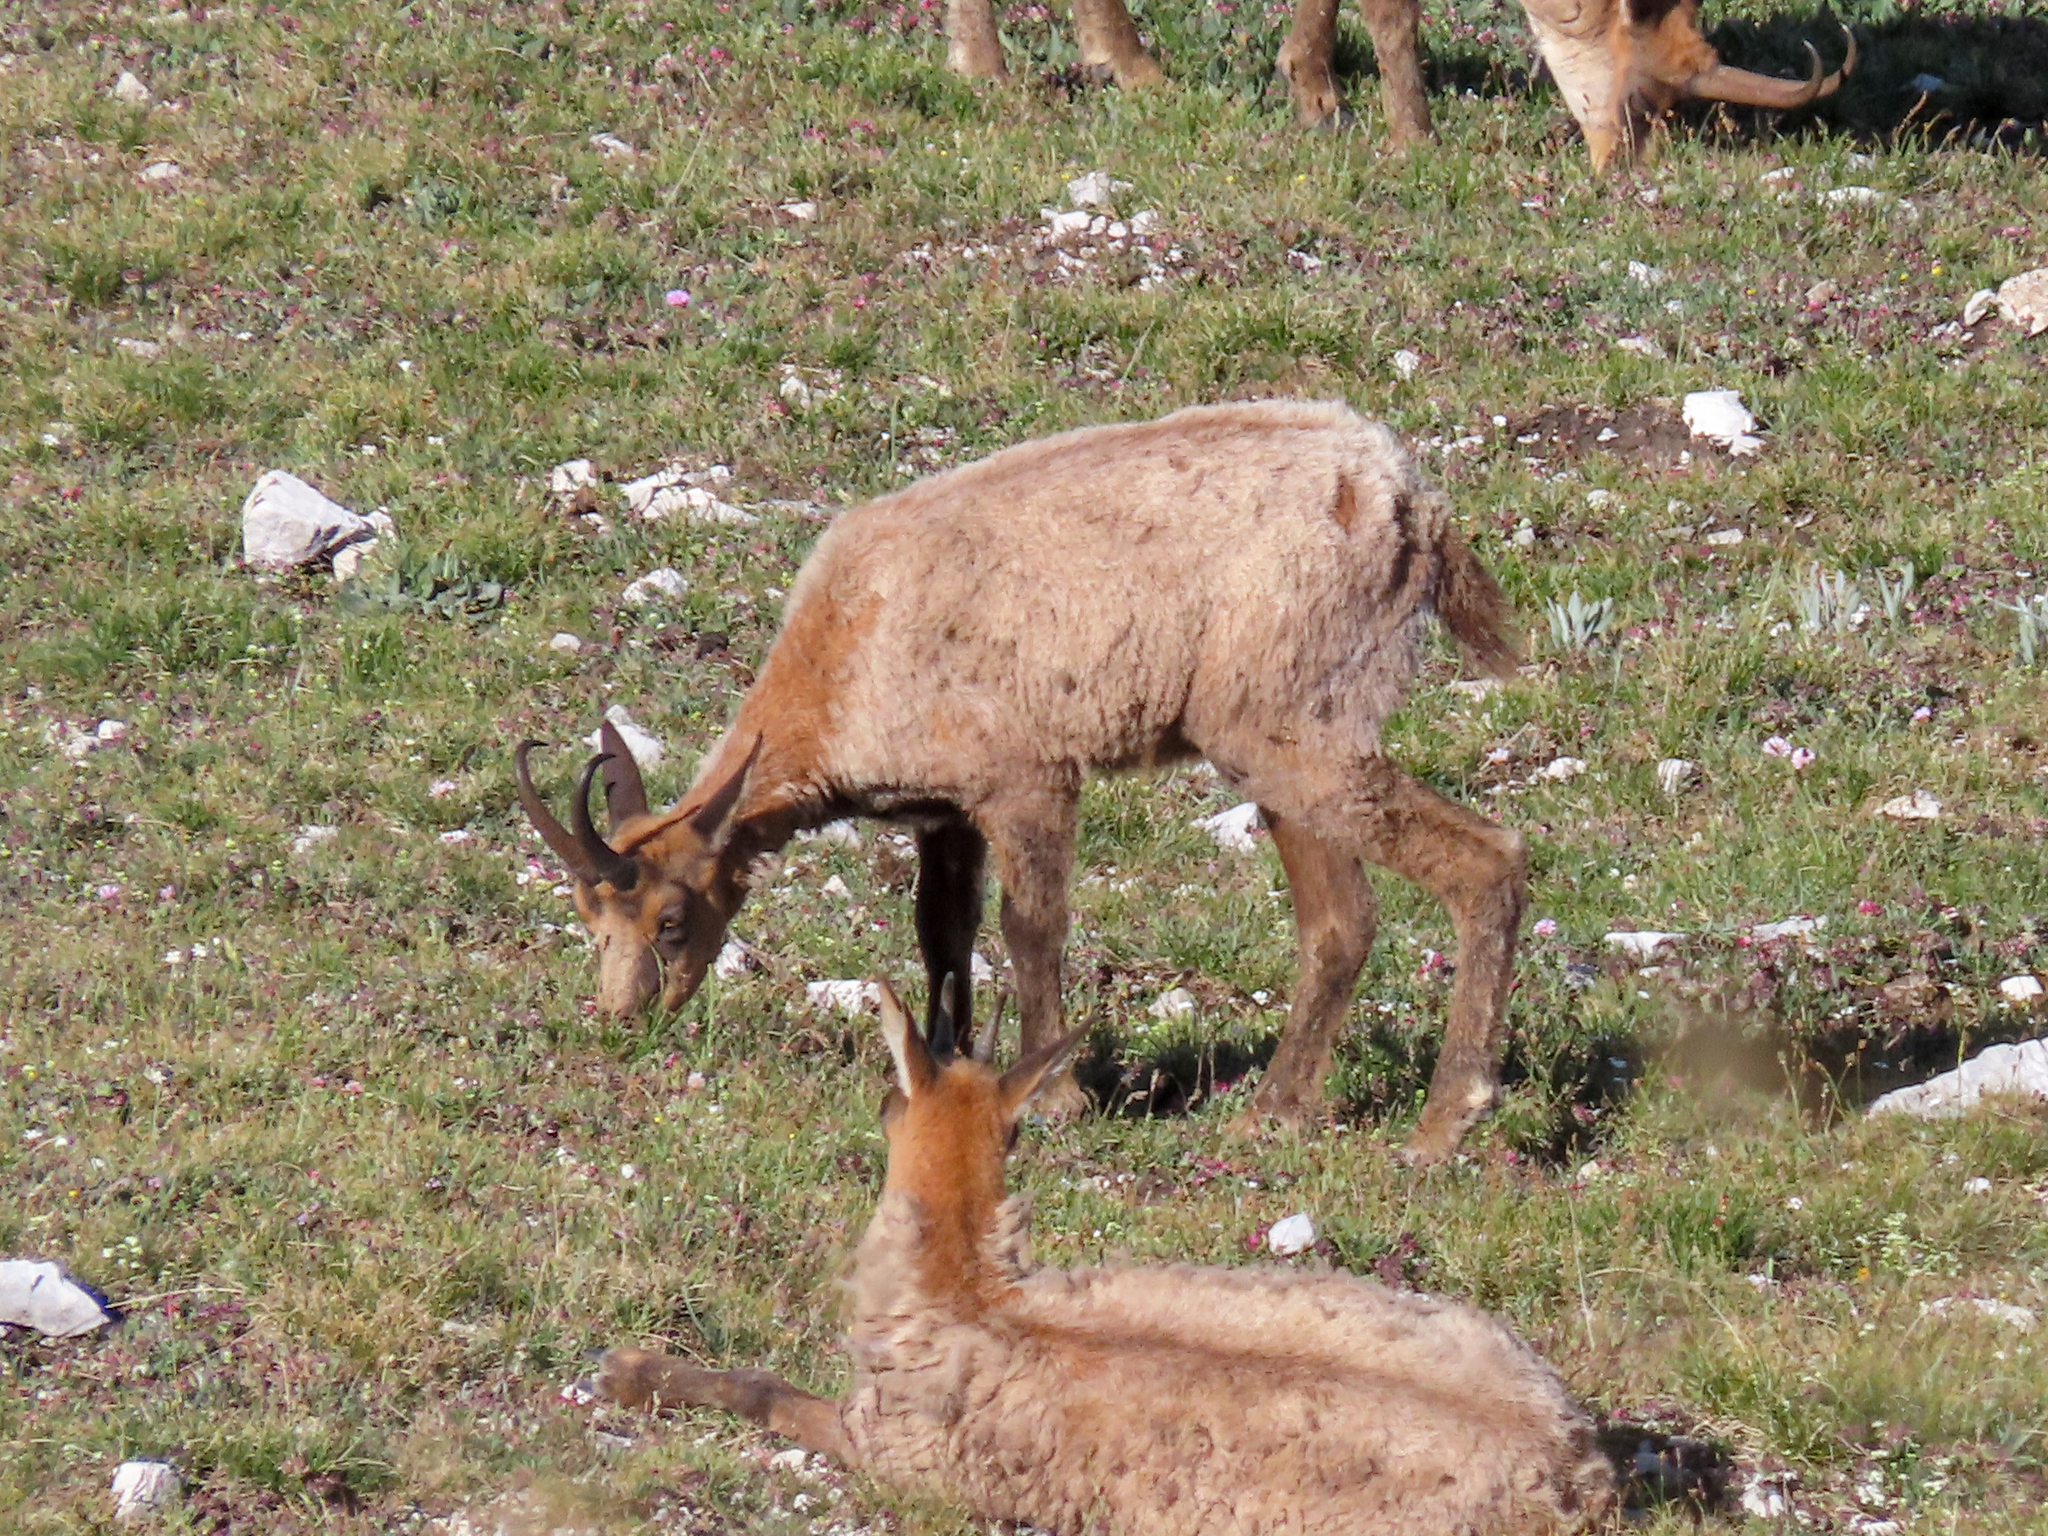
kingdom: Animalia
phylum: Chordata
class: Mammalia
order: Artiodactyla
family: Bovidae
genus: Rupicapra
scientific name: Rupicapra pyrenaica
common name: Pyrenean chamois
